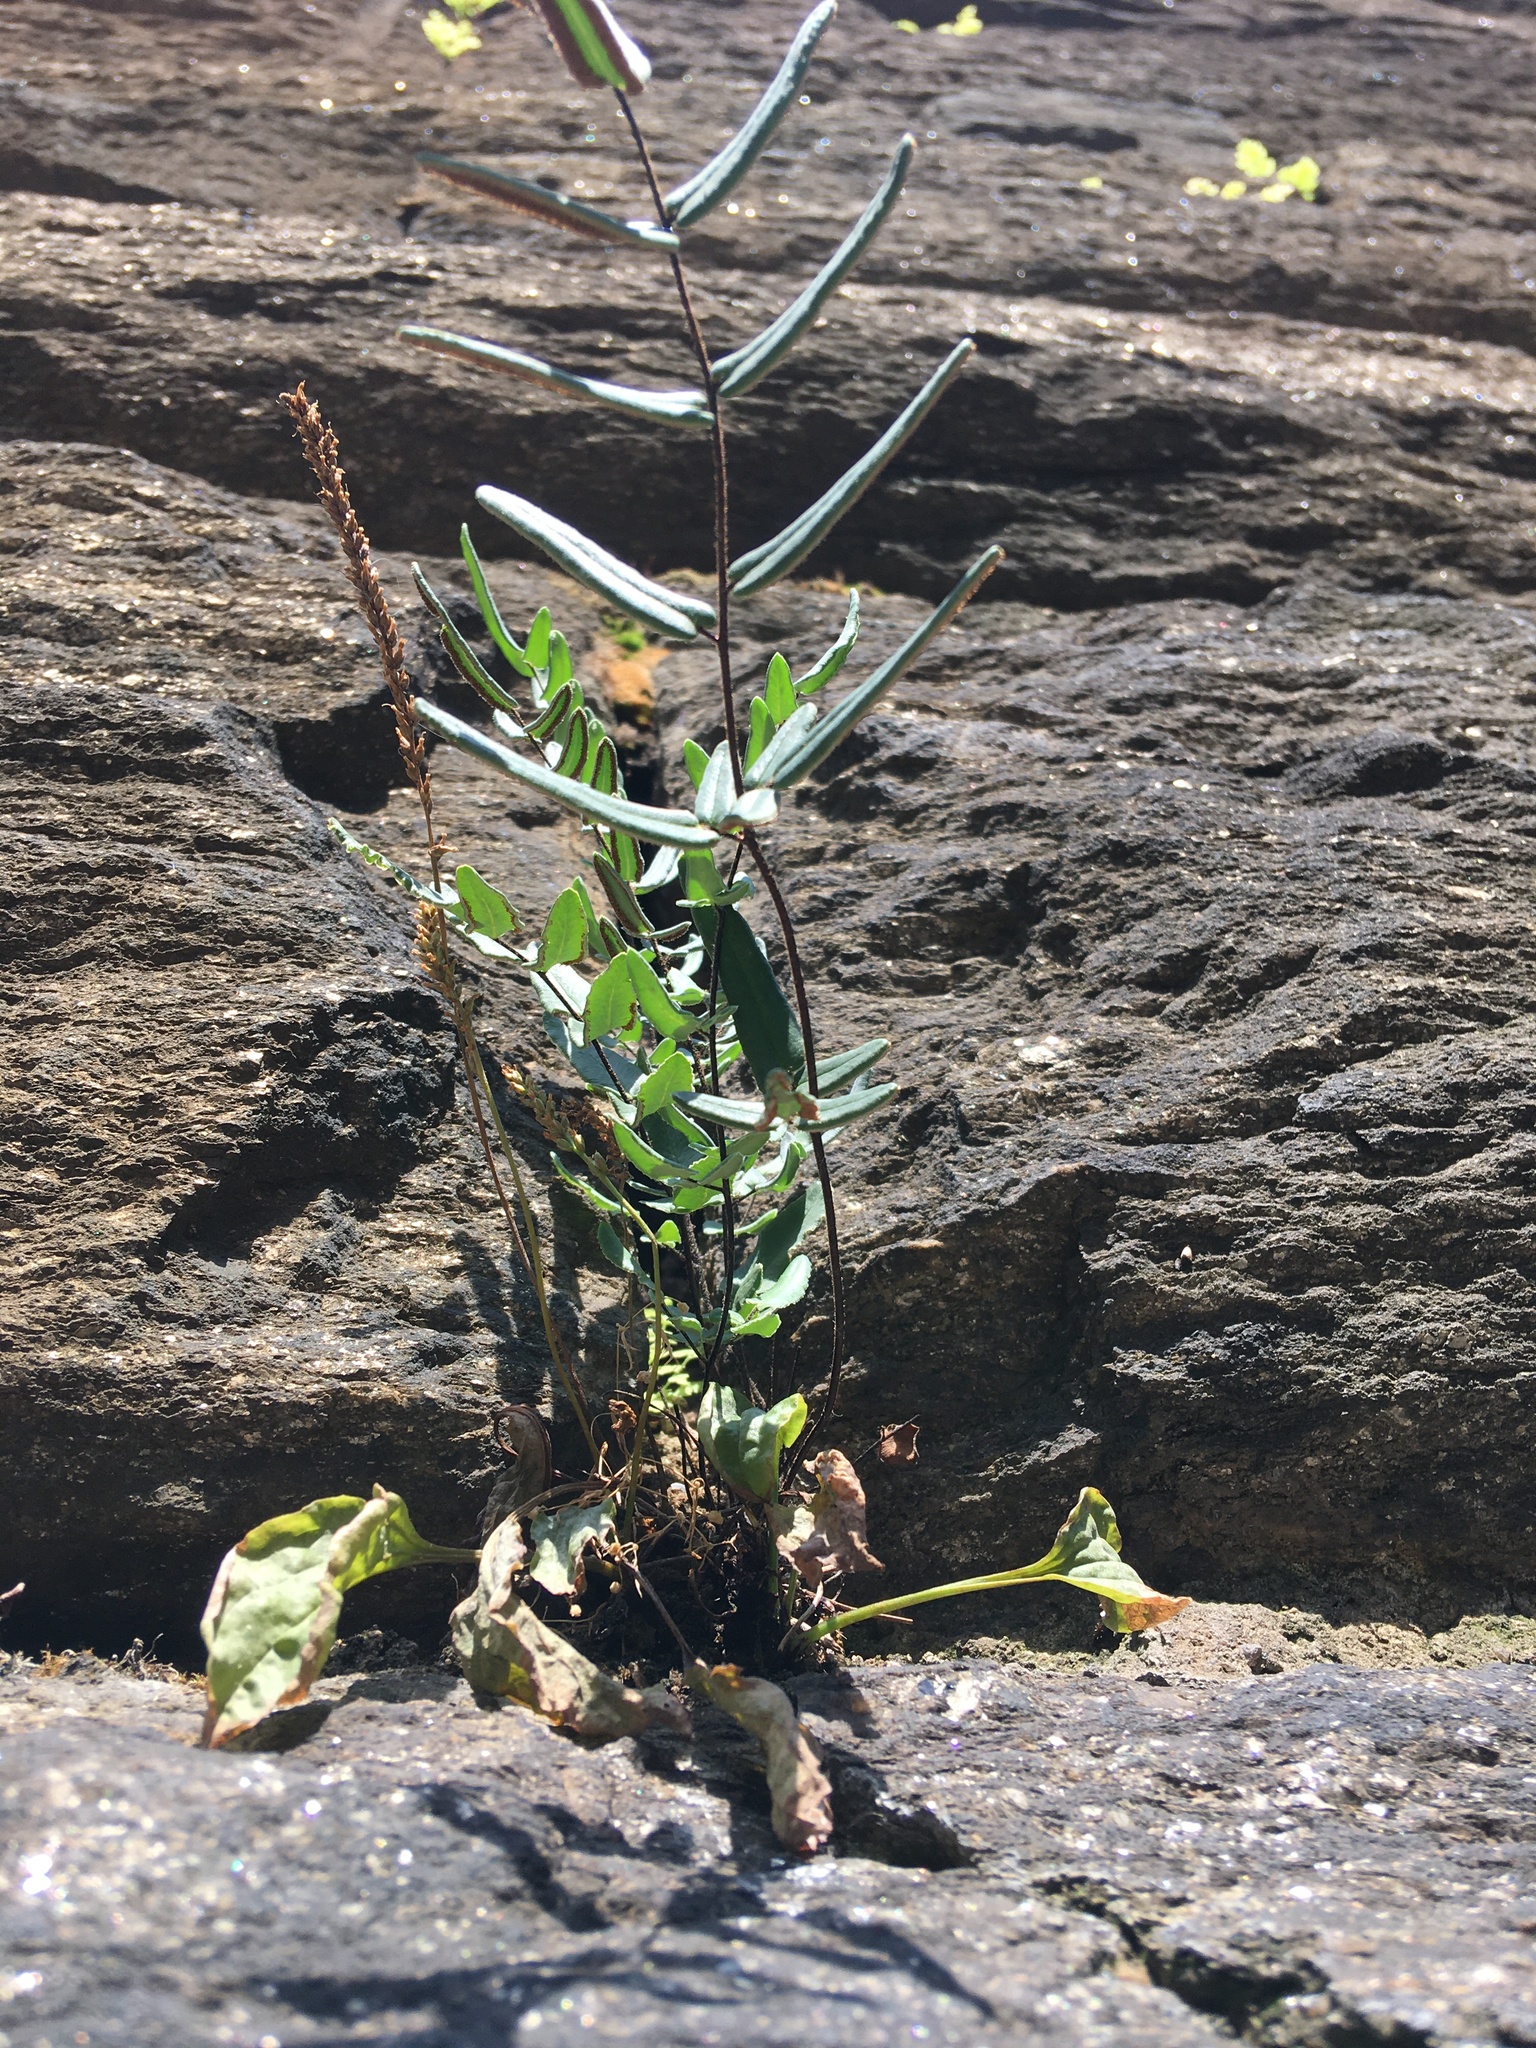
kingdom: Plantae
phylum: Tracheophyta
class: Polypodiopsida
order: Polypodiales
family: Pteridaceae
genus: Pellaea
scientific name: Pellaea atropurpurea
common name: Hairy cliffbrake
